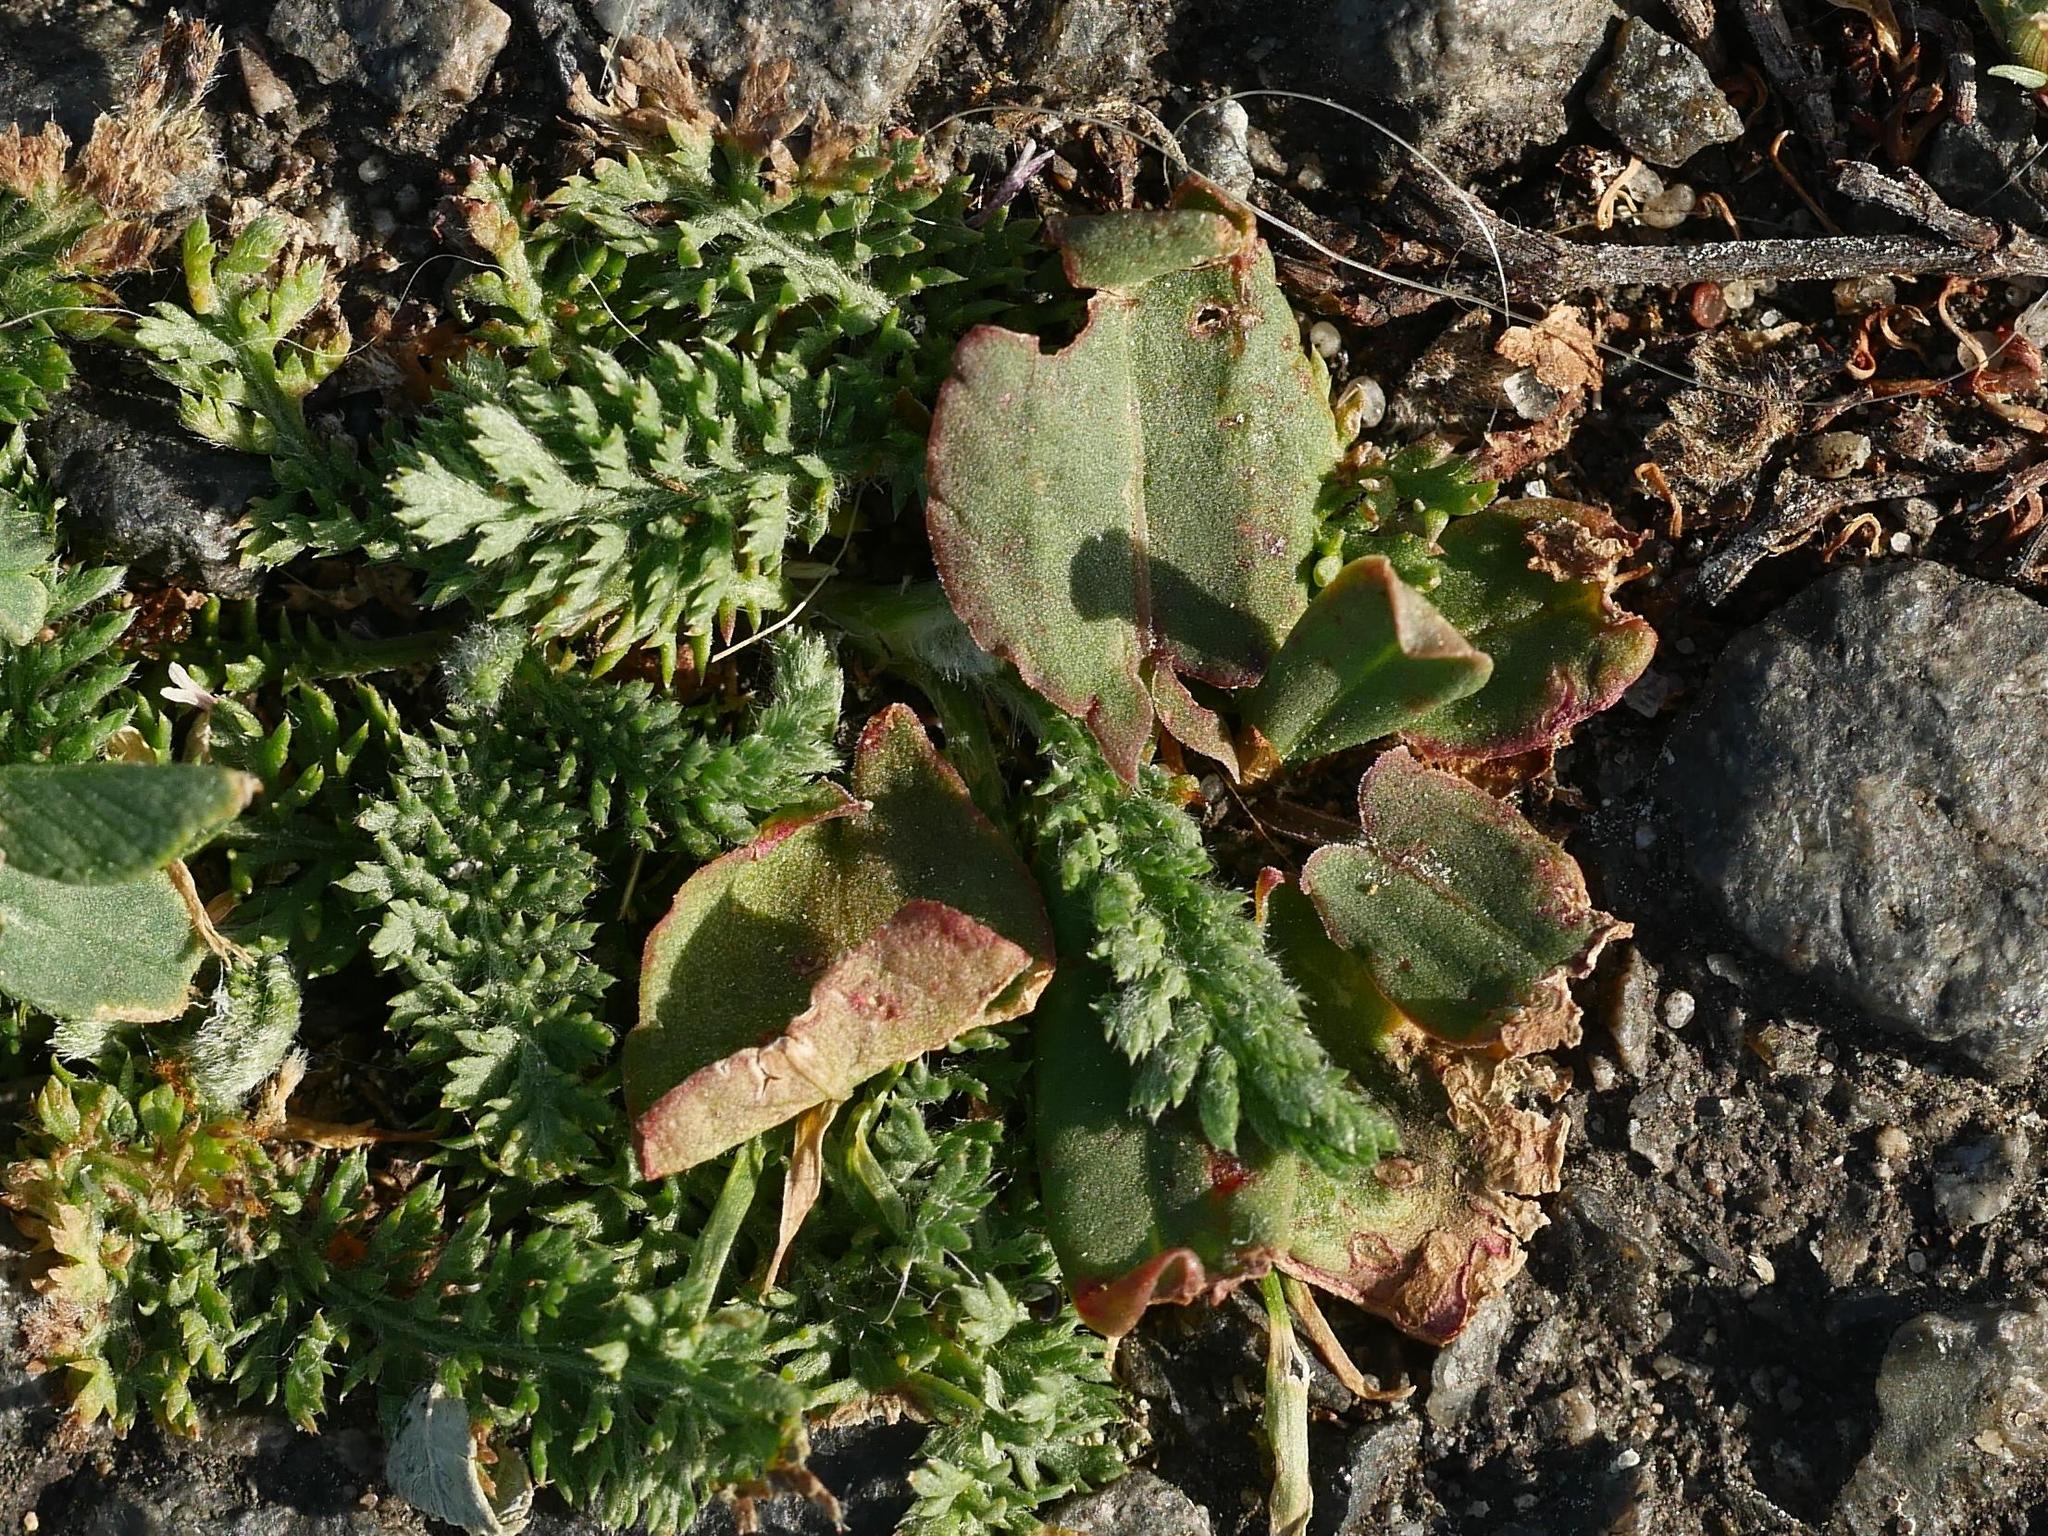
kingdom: Plantae
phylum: Tracheophyta
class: Magnoliopsida
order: Asterales
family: Asteraceae
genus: Achillea
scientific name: Achillea millefolium
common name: Yarrow
